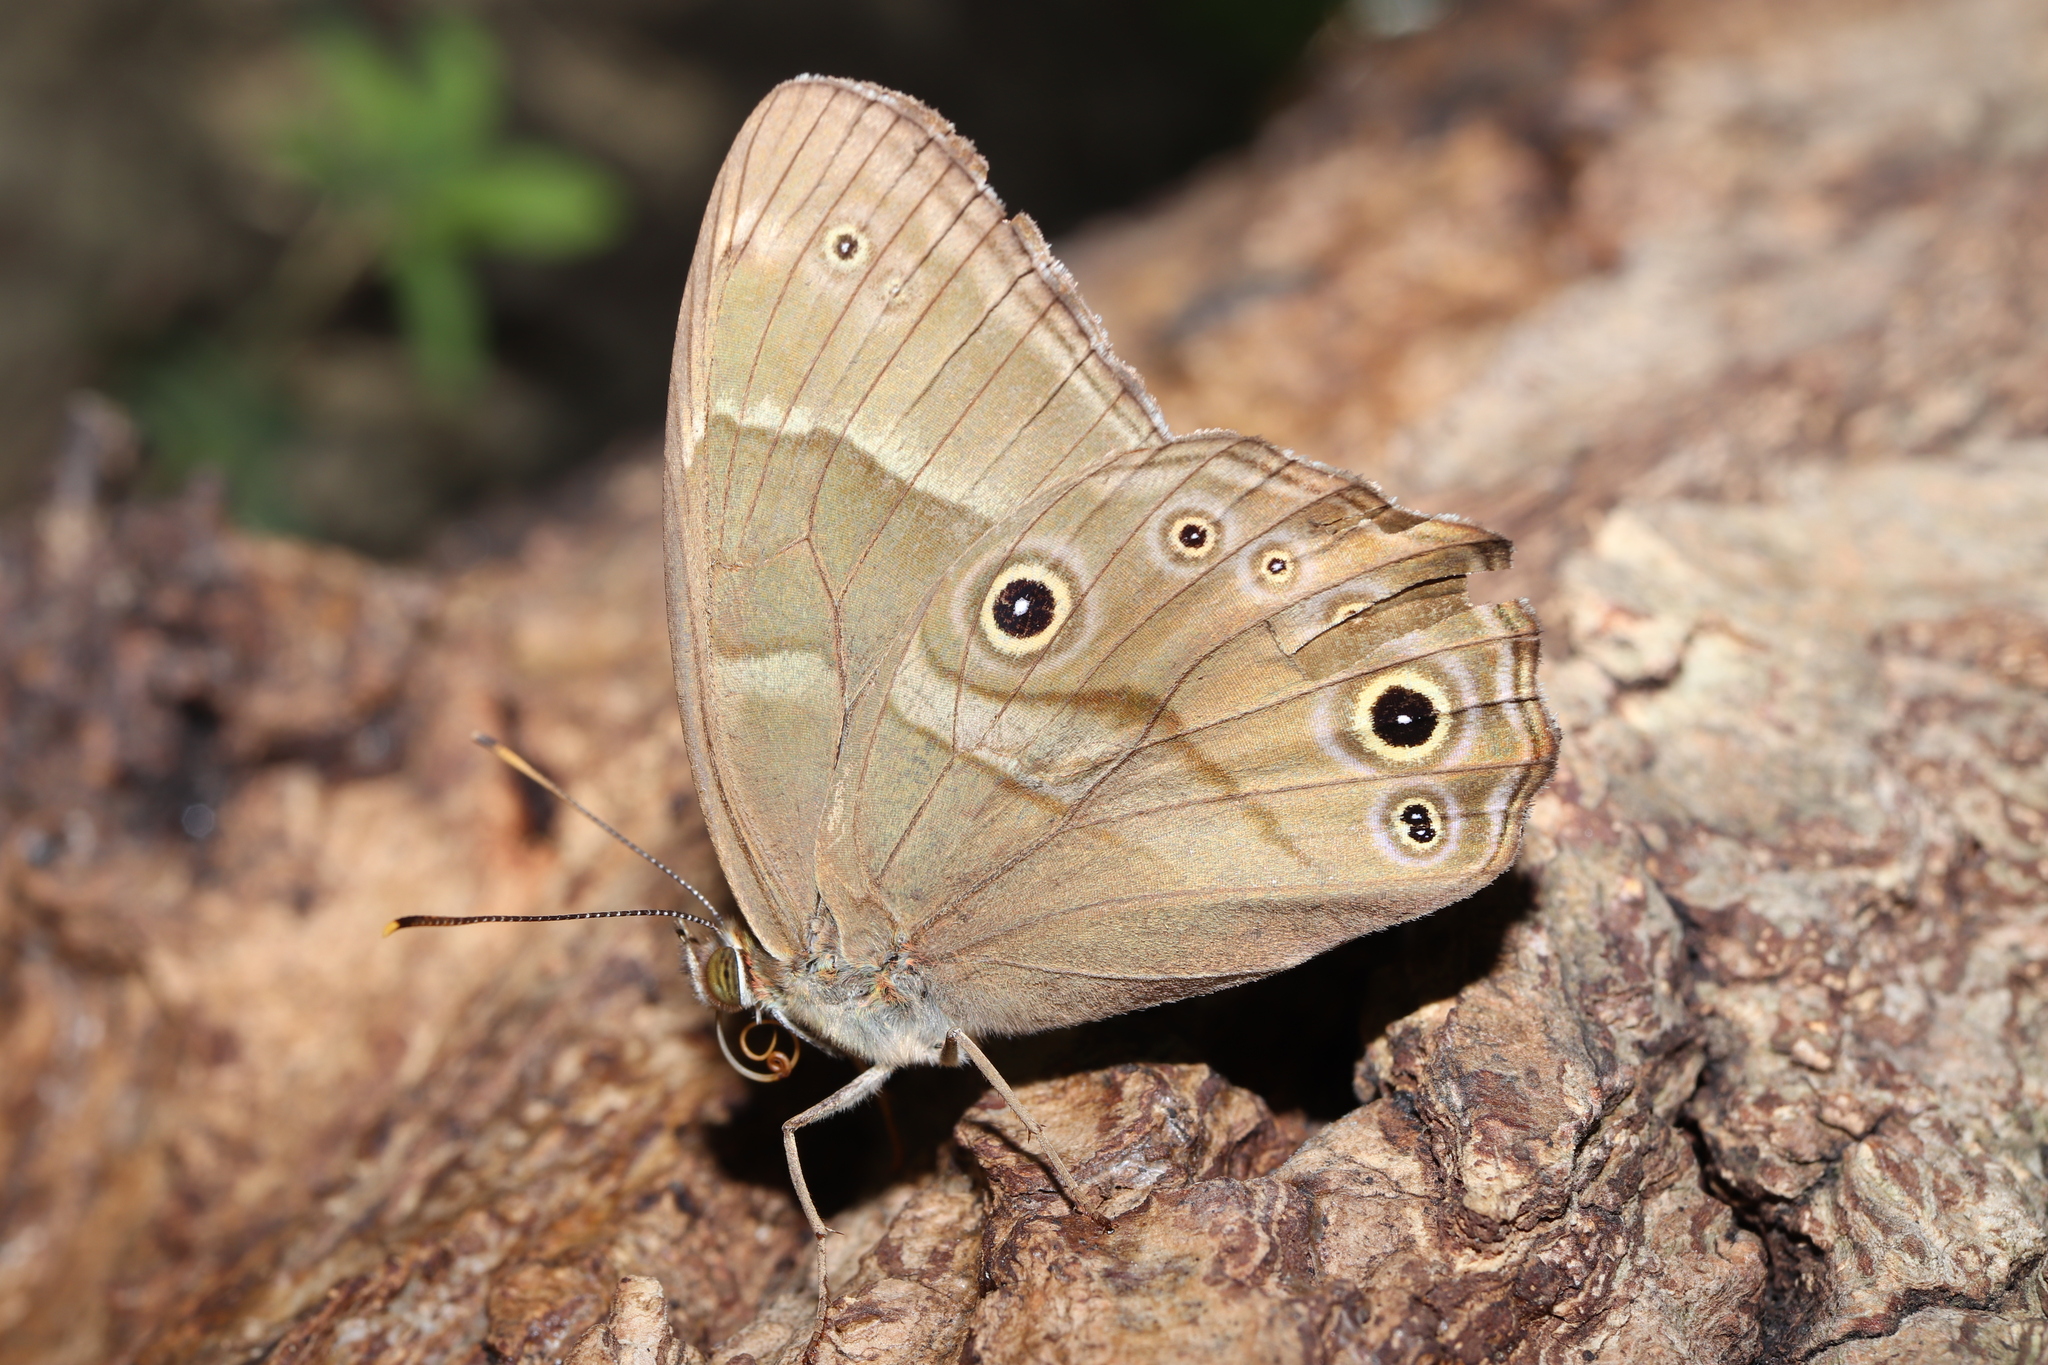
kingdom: Animalia
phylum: Arthropoda
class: Insecta
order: Lepidoptera
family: Nymphalidae
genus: Lethe
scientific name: Lethe sicelis
